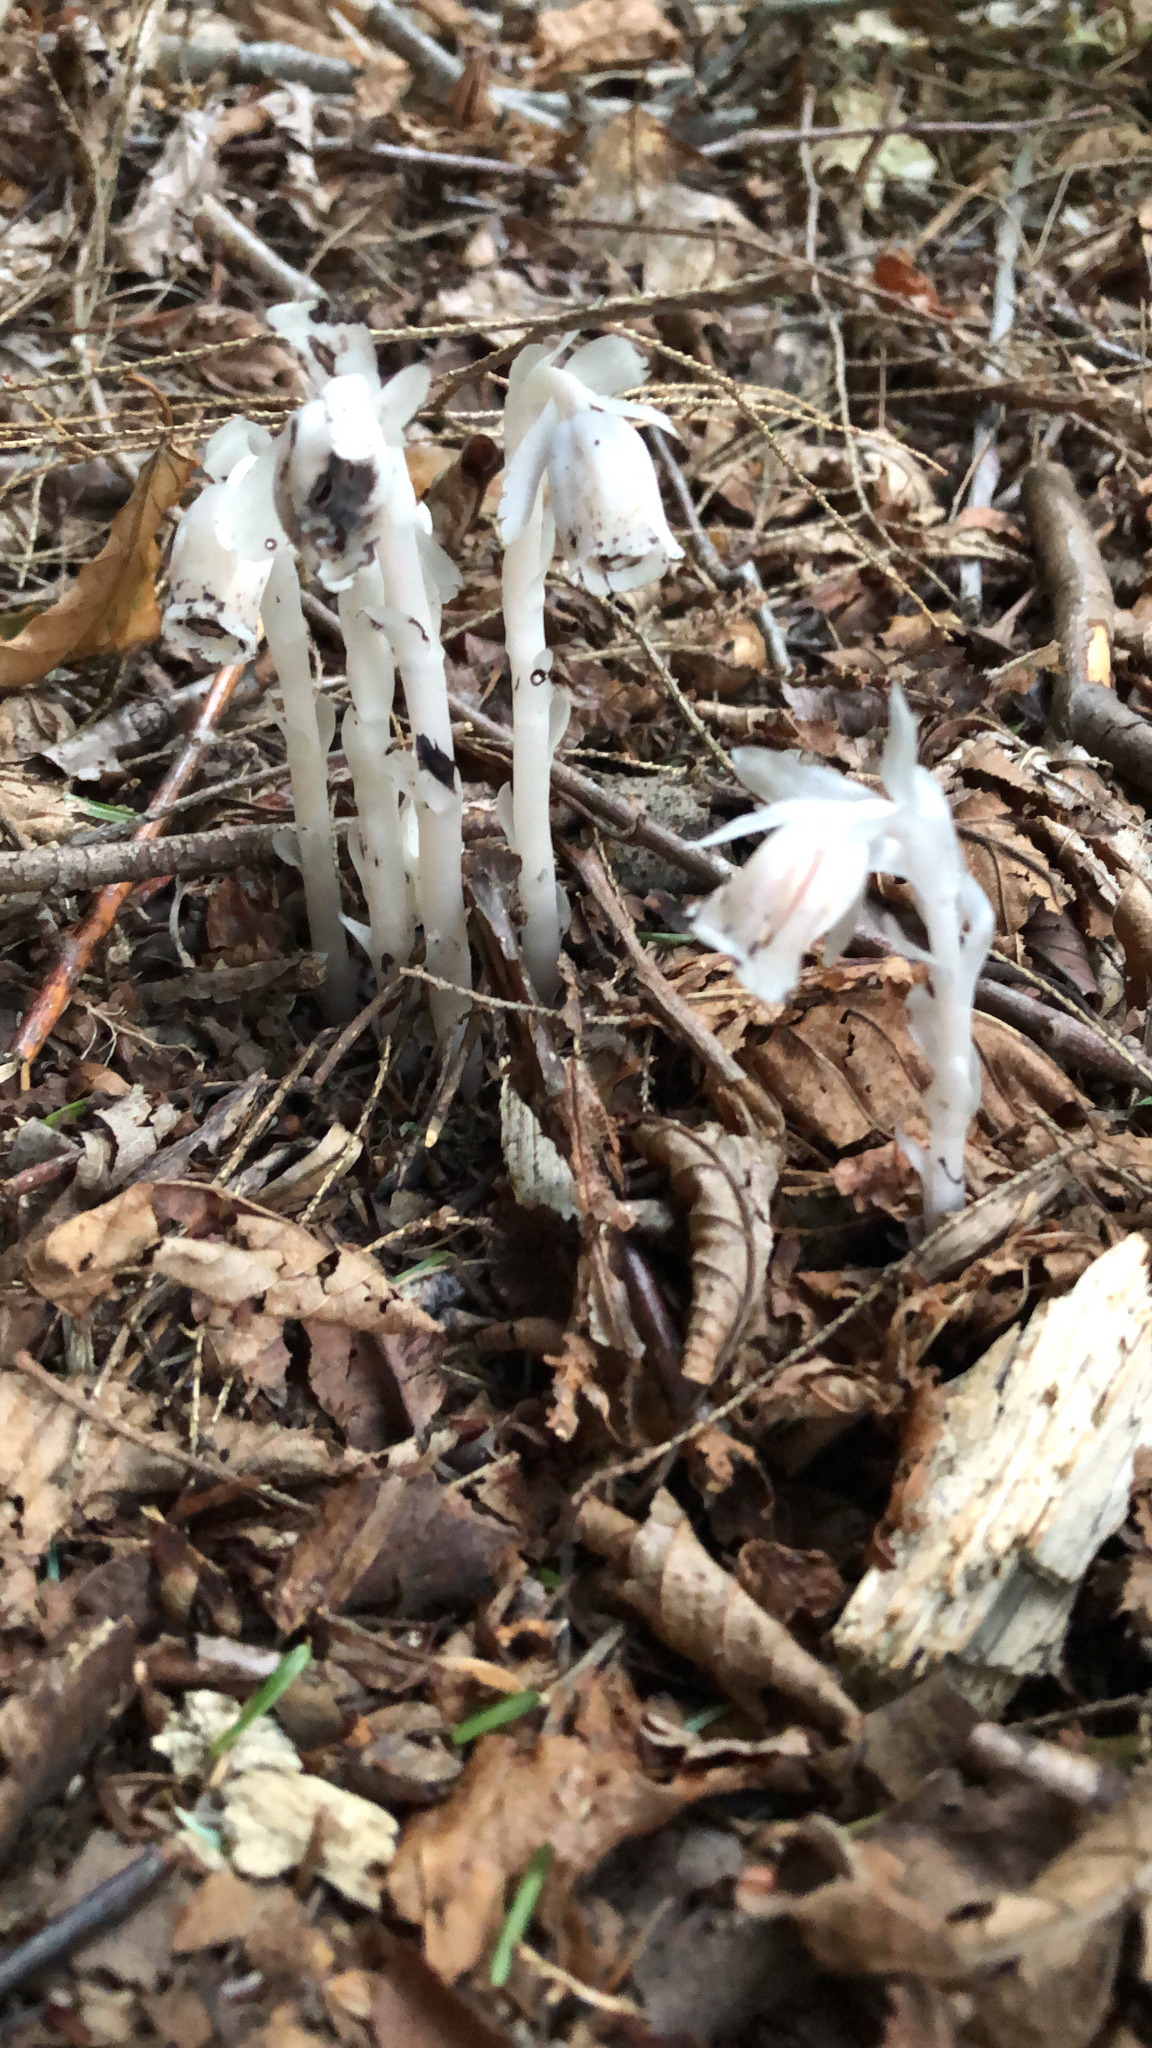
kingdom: Plantae
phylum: Tracheophyta
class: Magnoliopsida
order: Ericales
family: Ericaceae
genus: Monotropa
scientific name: Monotropa uniflora
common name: Convulsion root
